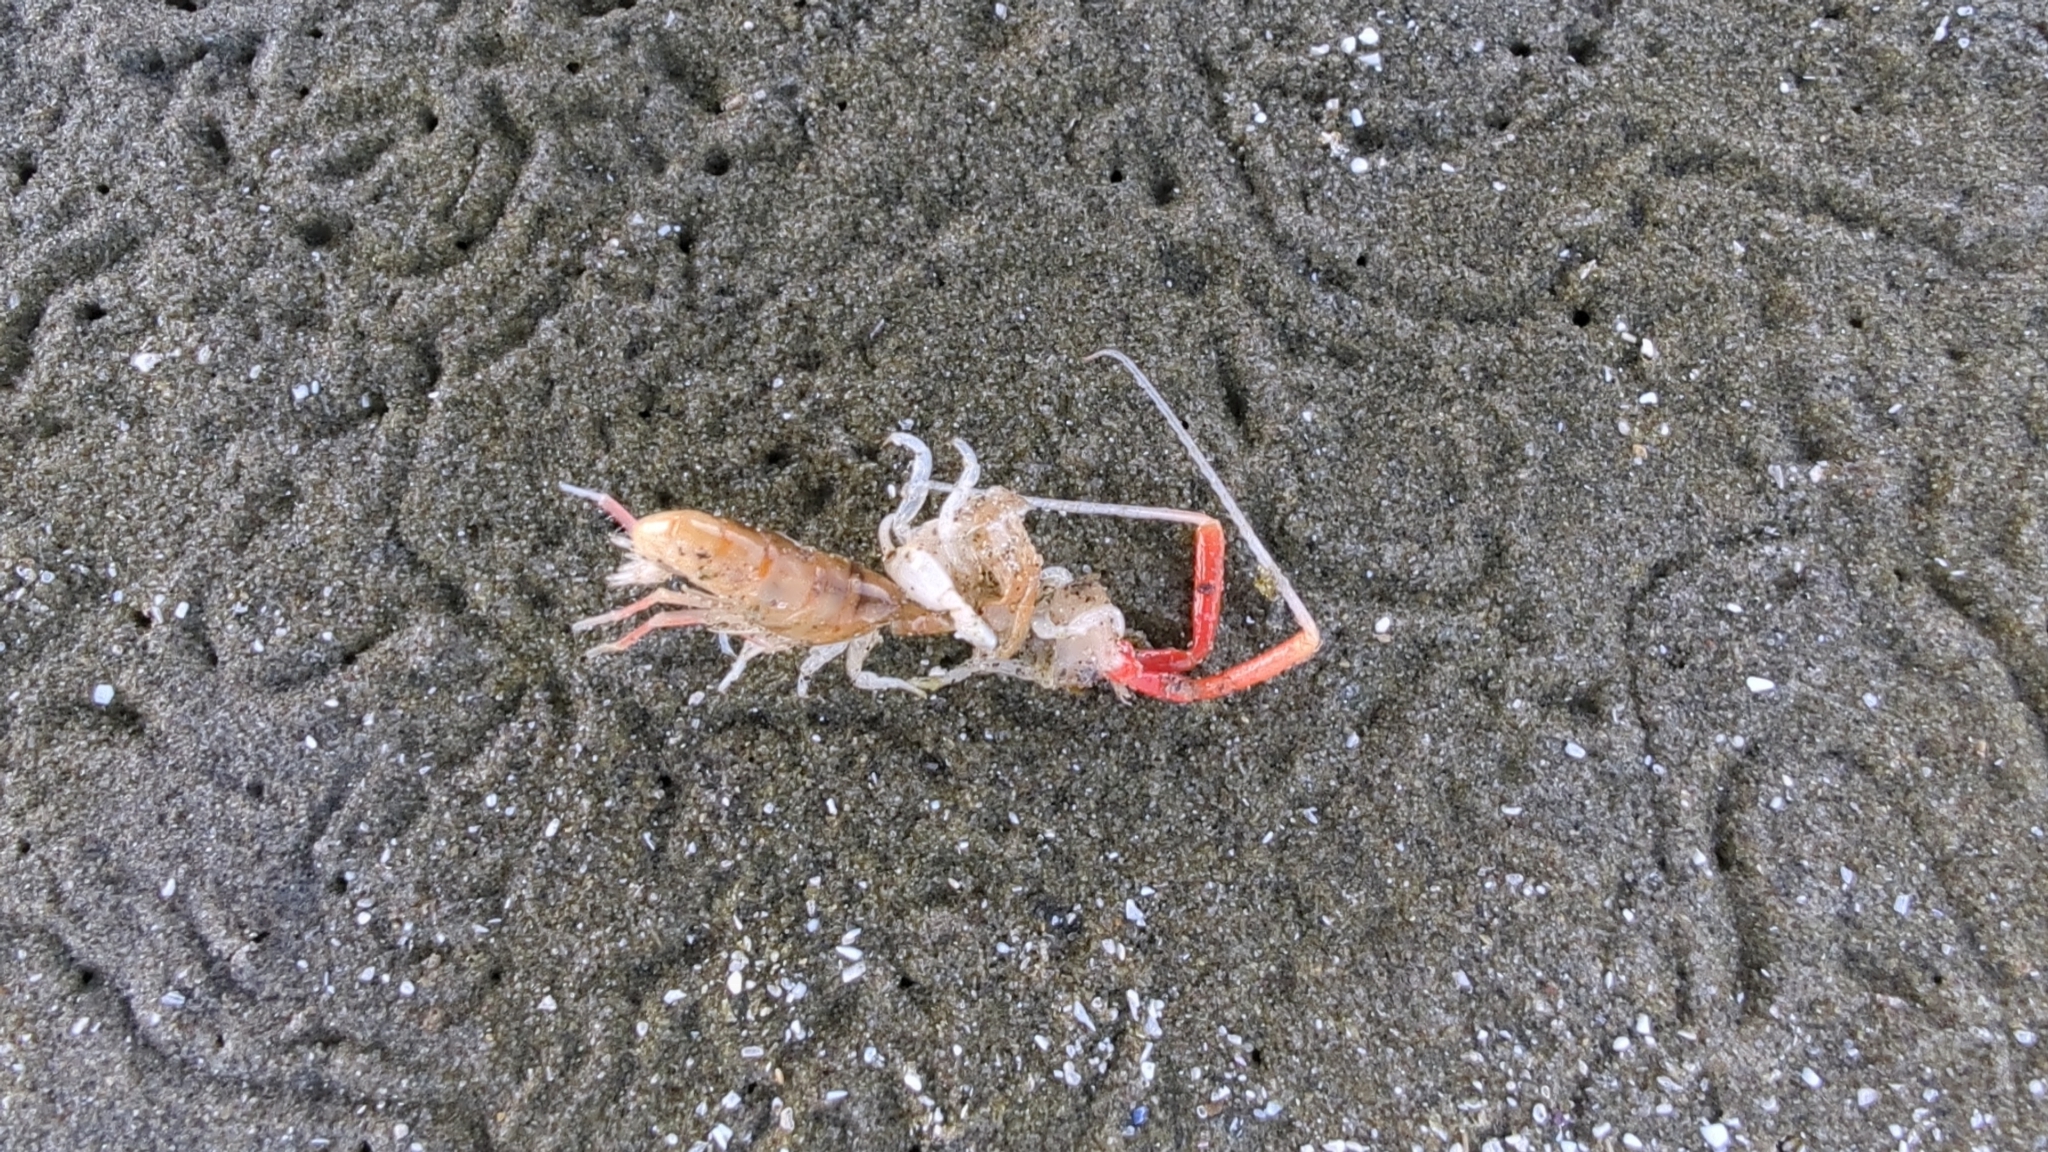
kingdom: Animalia
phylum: Arthropoda
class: Malacostraca
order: Amphipoda
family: Talitridae
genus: Megalorchestia
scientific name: Megalorchestia californiana
